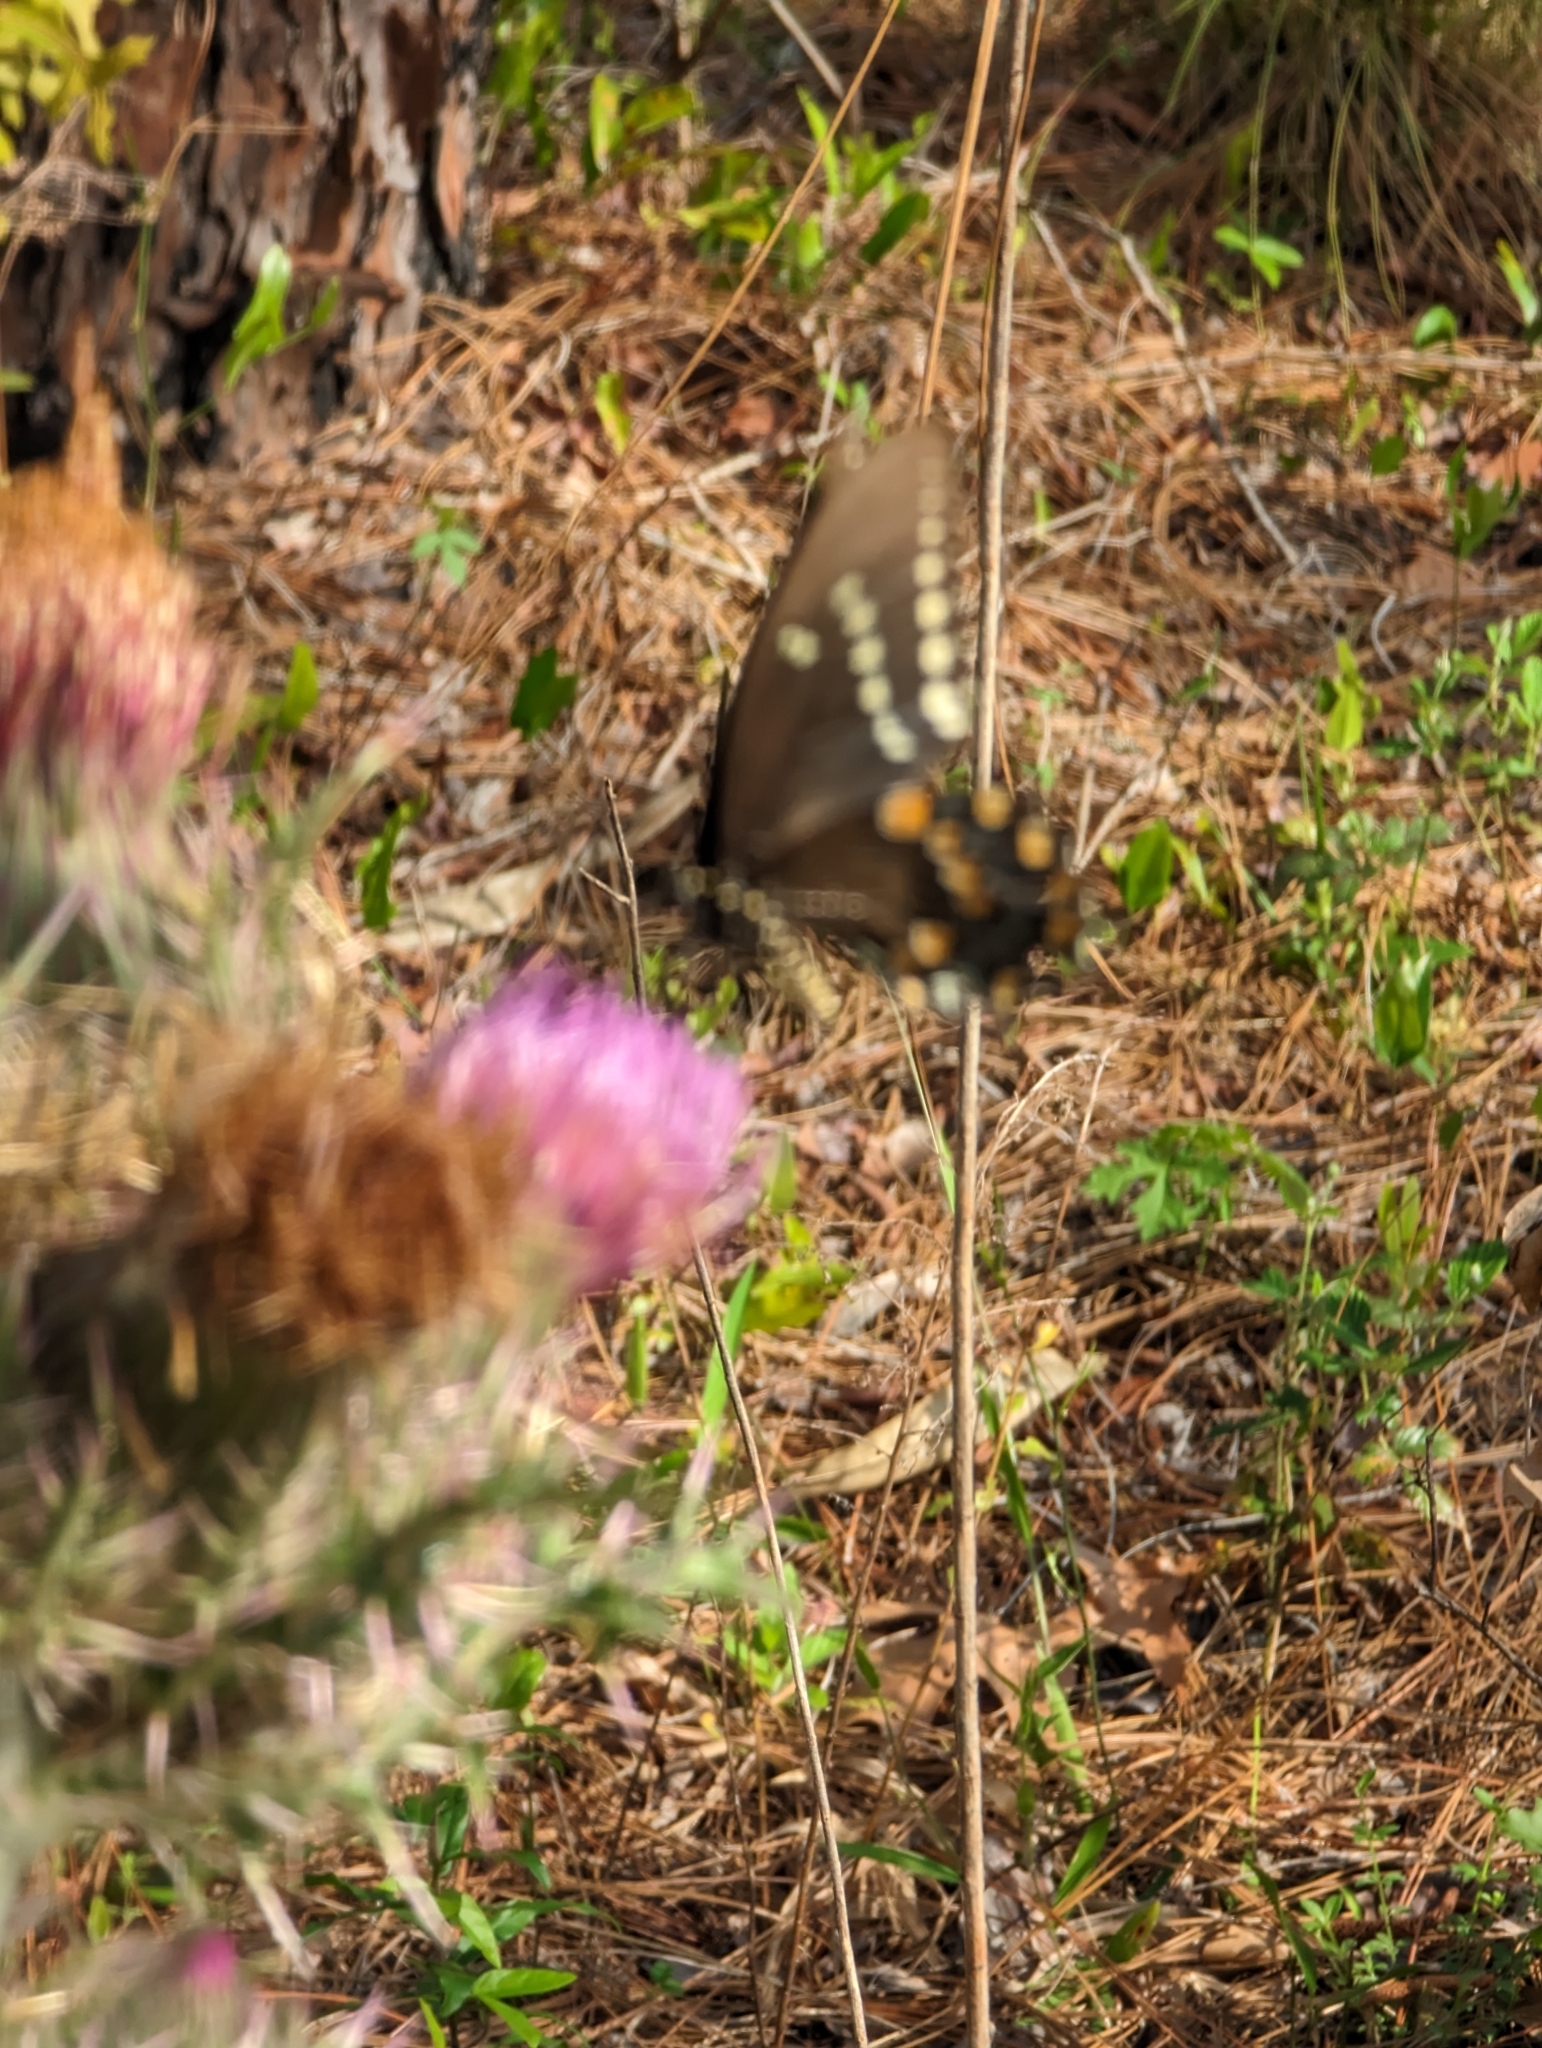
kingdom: Animalia
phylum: Arthropoda
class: Insecta
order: Lepidoptera
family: Papilionidae
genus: Papilio
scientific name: Papilio troilus
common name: Spicebush swallowtail
